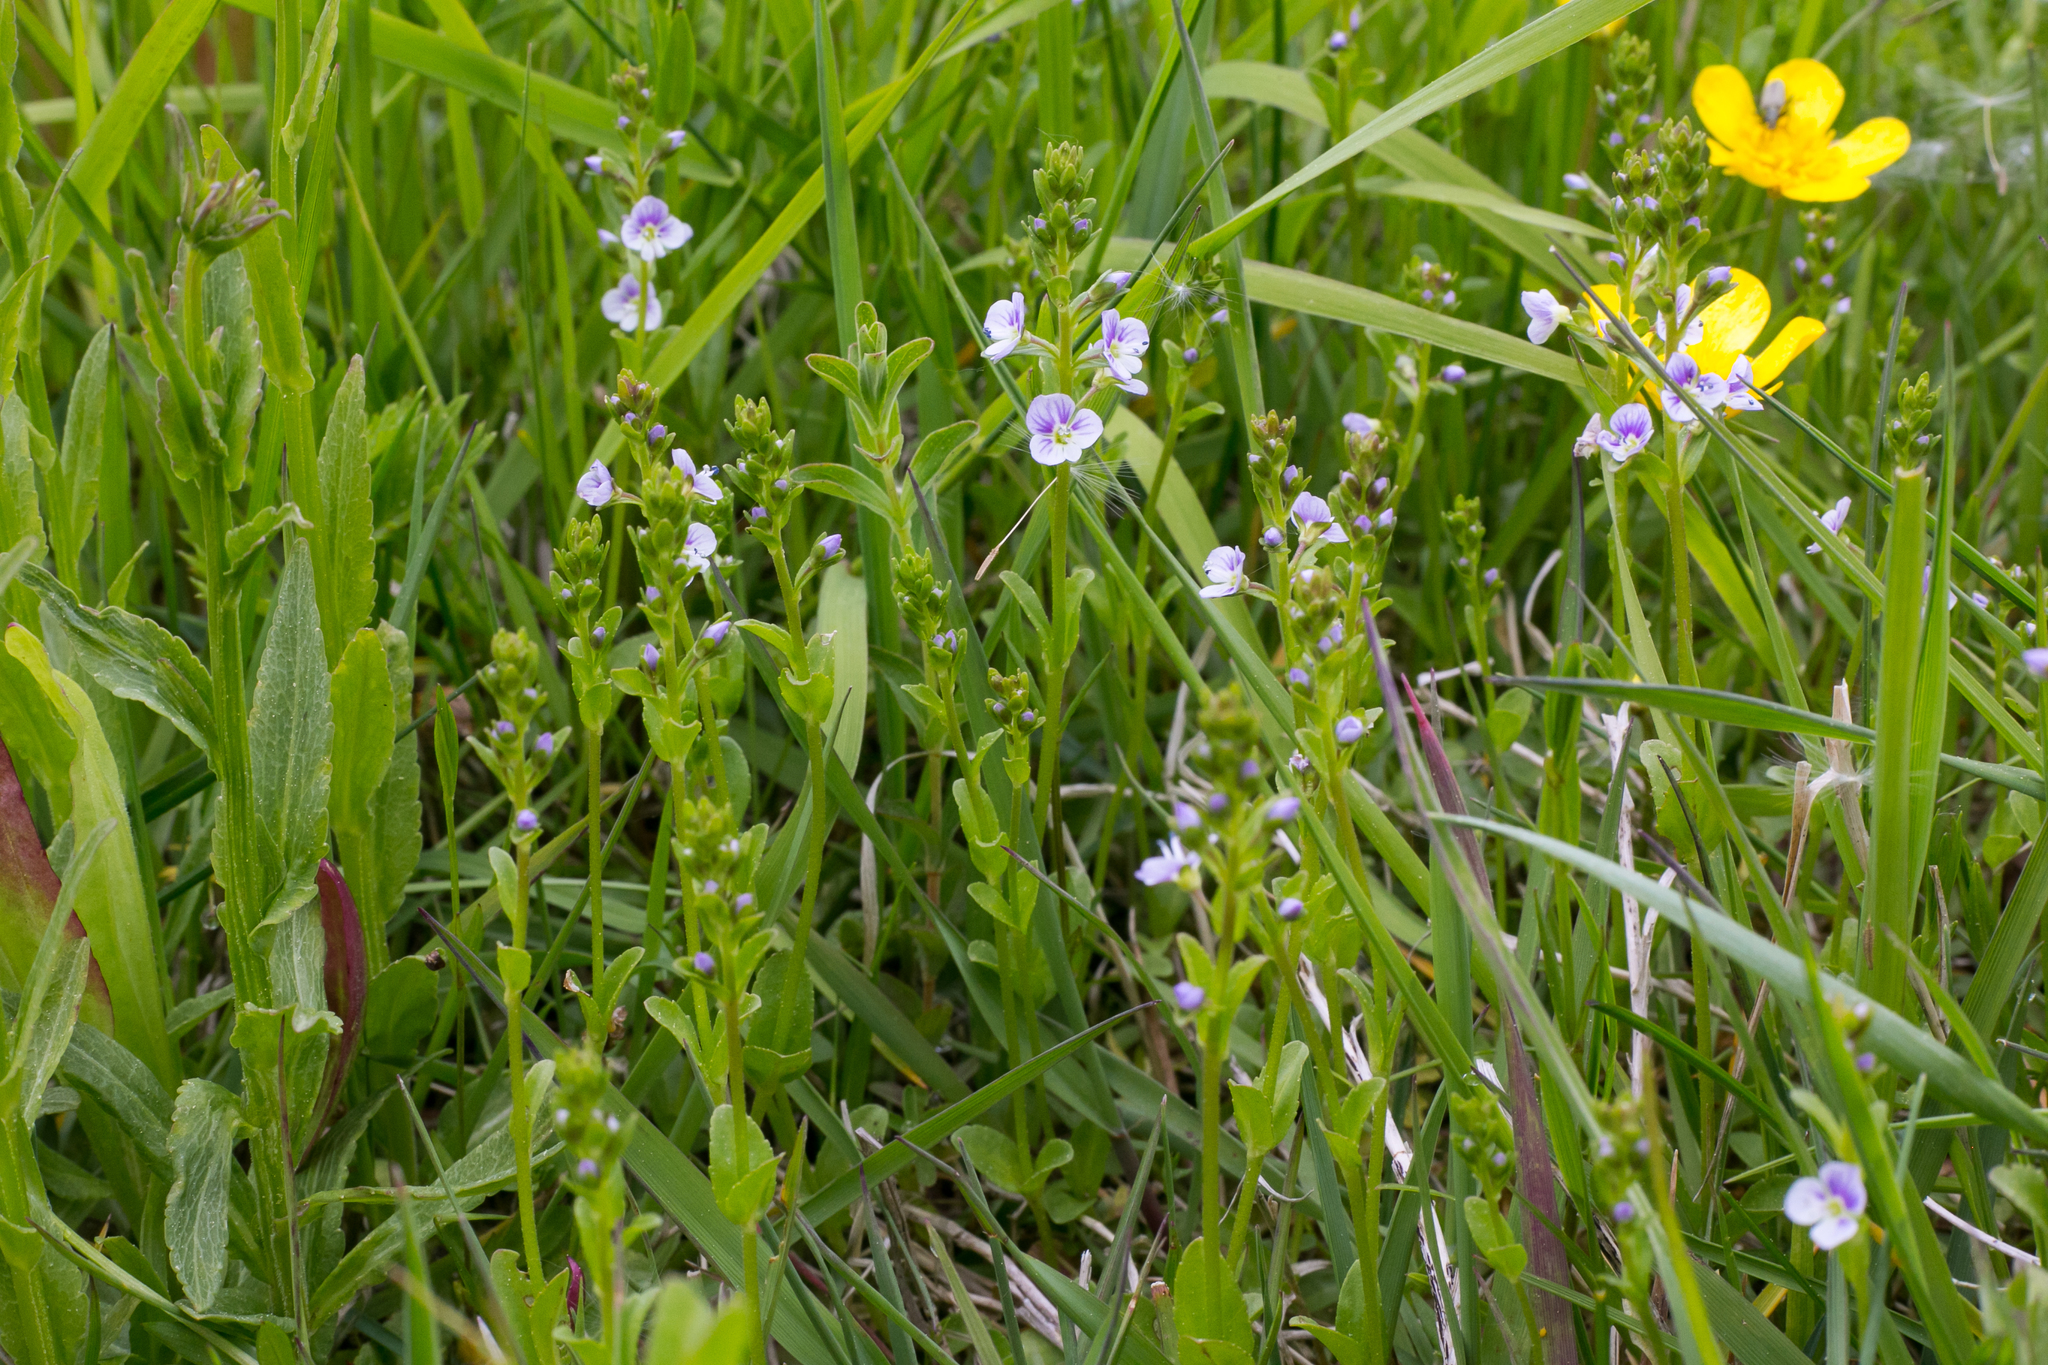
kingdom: Plantae
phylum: Tracheophyta
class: Magnoliopsida
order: Lamiales
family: Plantaginaceae
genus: Veronica
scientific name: Veronica serpyllifolia
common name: Thyme-leaved speedwell
